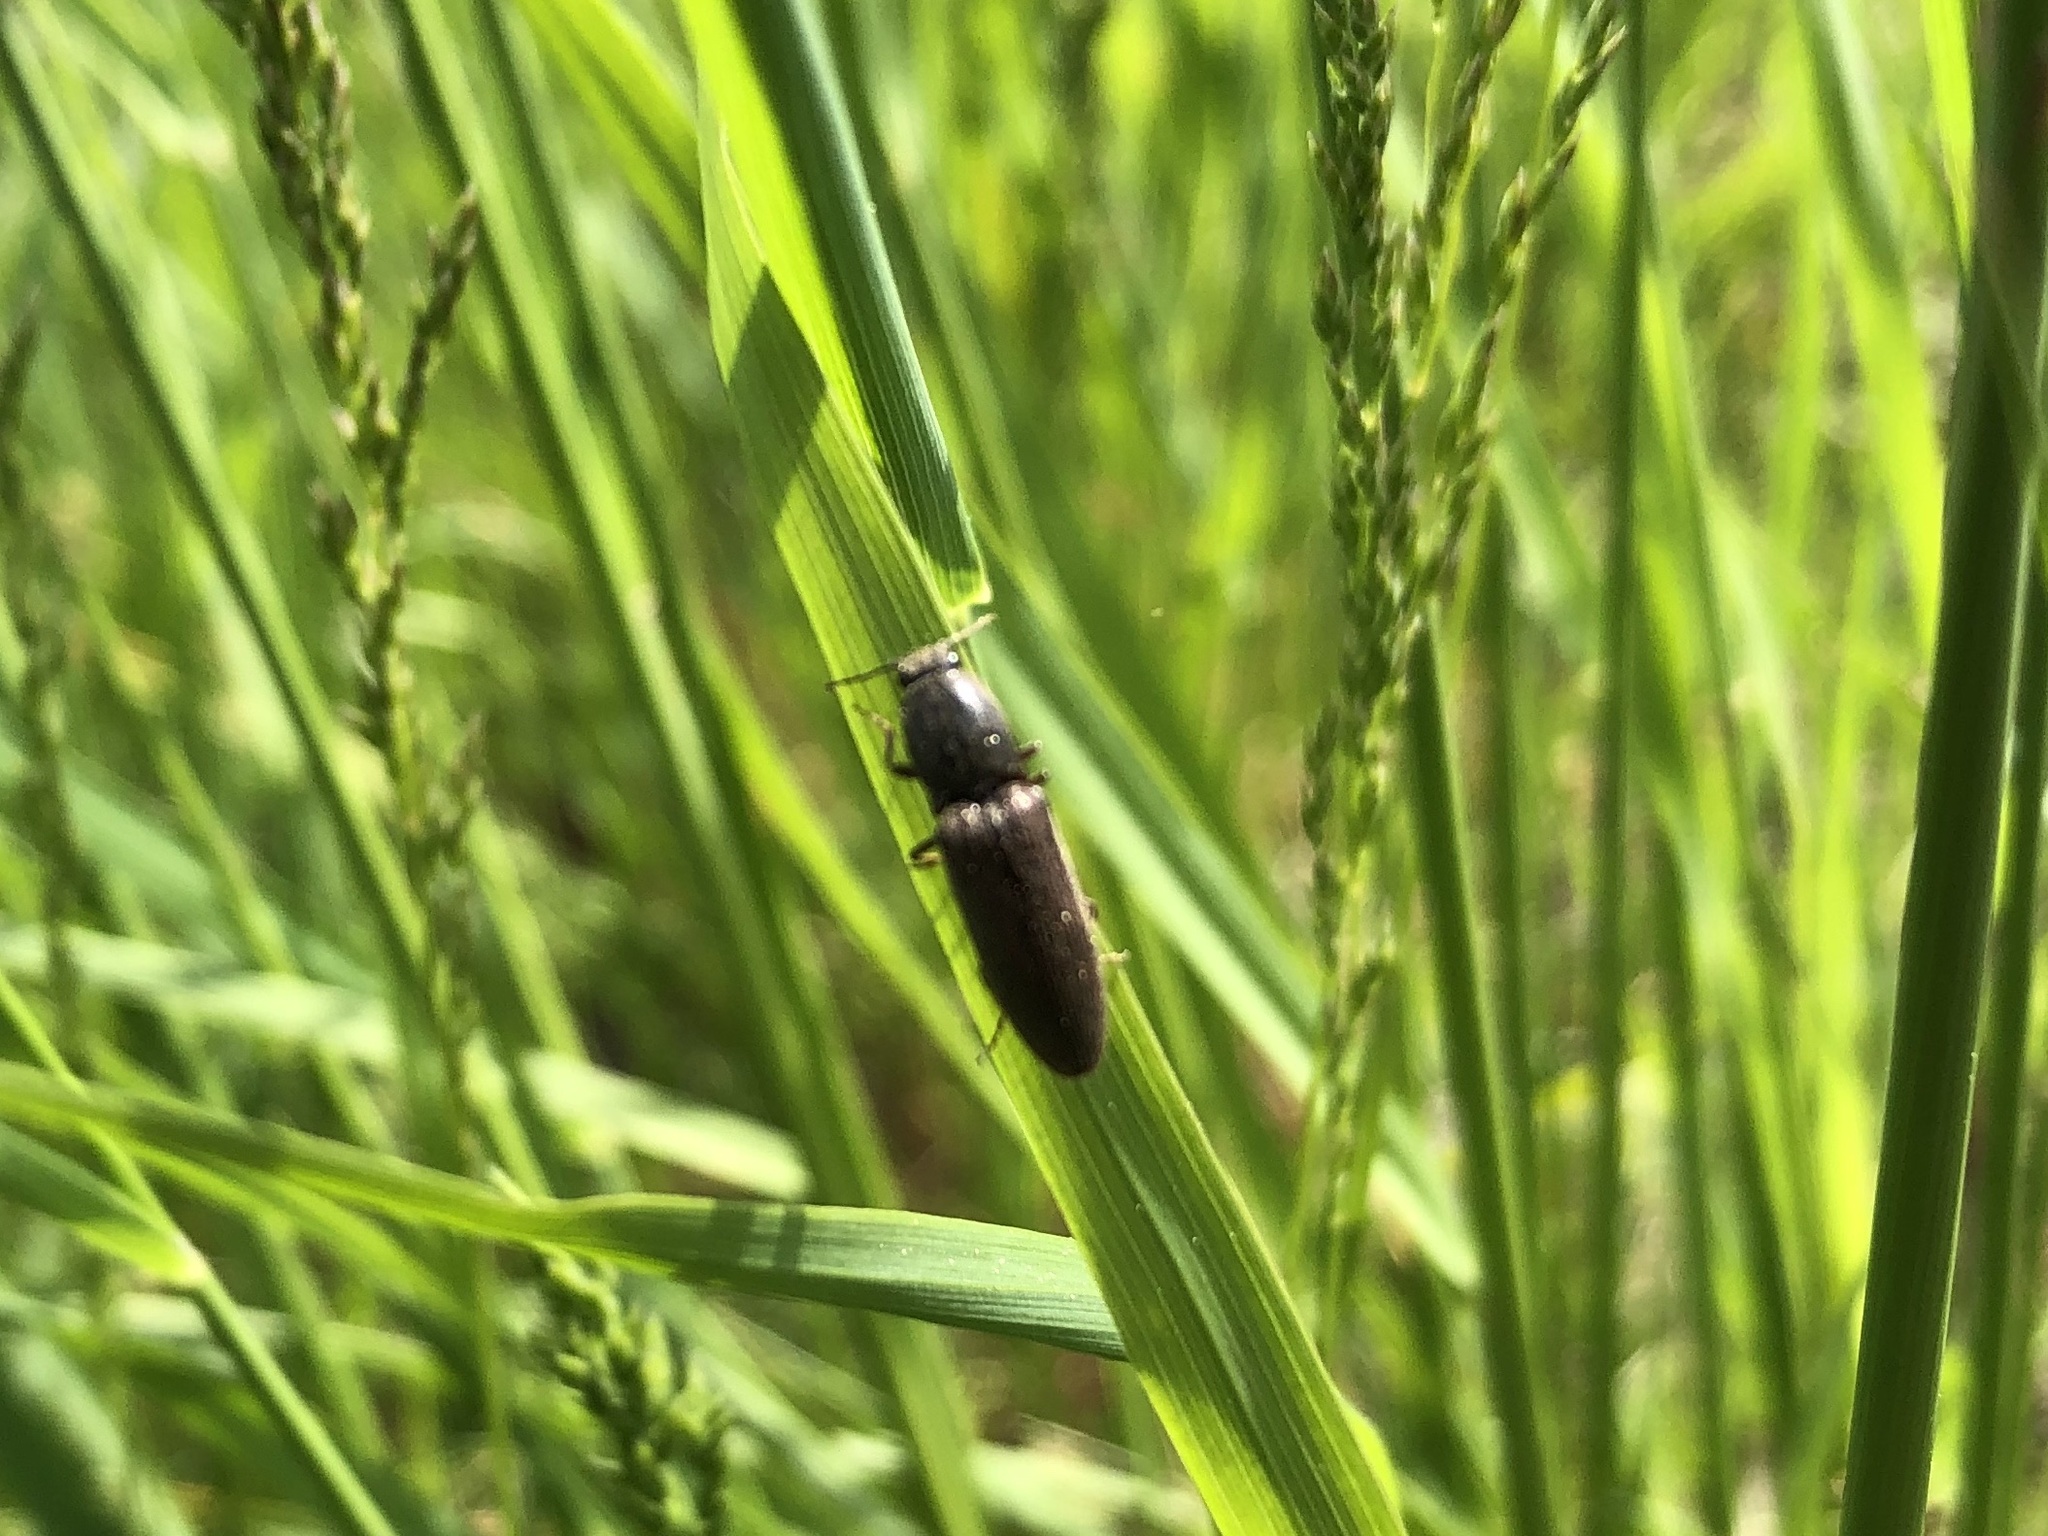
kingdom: Animalia
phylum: Arthropoda
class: Insecta
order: Coleoptera
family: Elateridae
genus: Athous
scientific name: Athous haemorrhoidalis
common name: Red-brown click beetle
